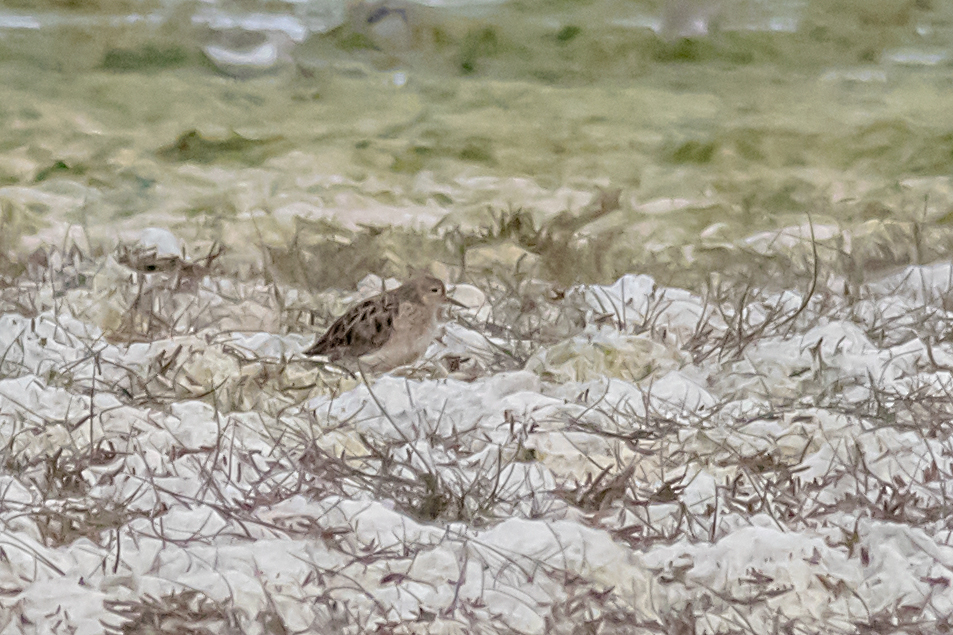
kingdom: Animalia
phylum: Chordata
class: Aves
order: Charadriiformes
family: Scolopacidae
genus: Calidris
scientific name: Calidris subruficollis
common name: Buff-breasted sandpiper
